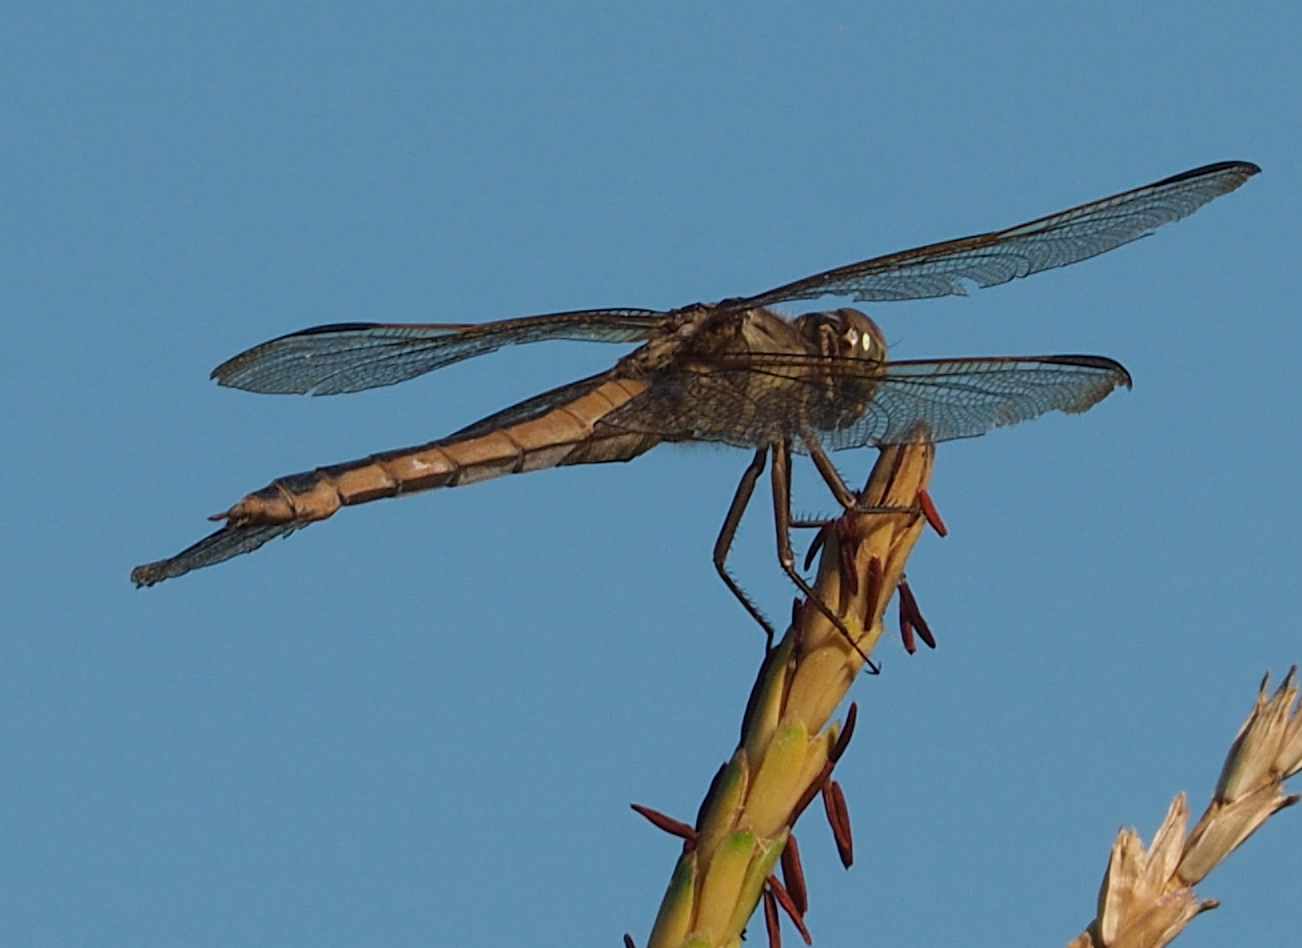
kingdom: Animalia
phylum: Arthropoda
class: Insecta
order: Odonata
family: Libellulidae
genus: Libellula
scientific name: Libellula needhami
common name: Needham's skimmer
